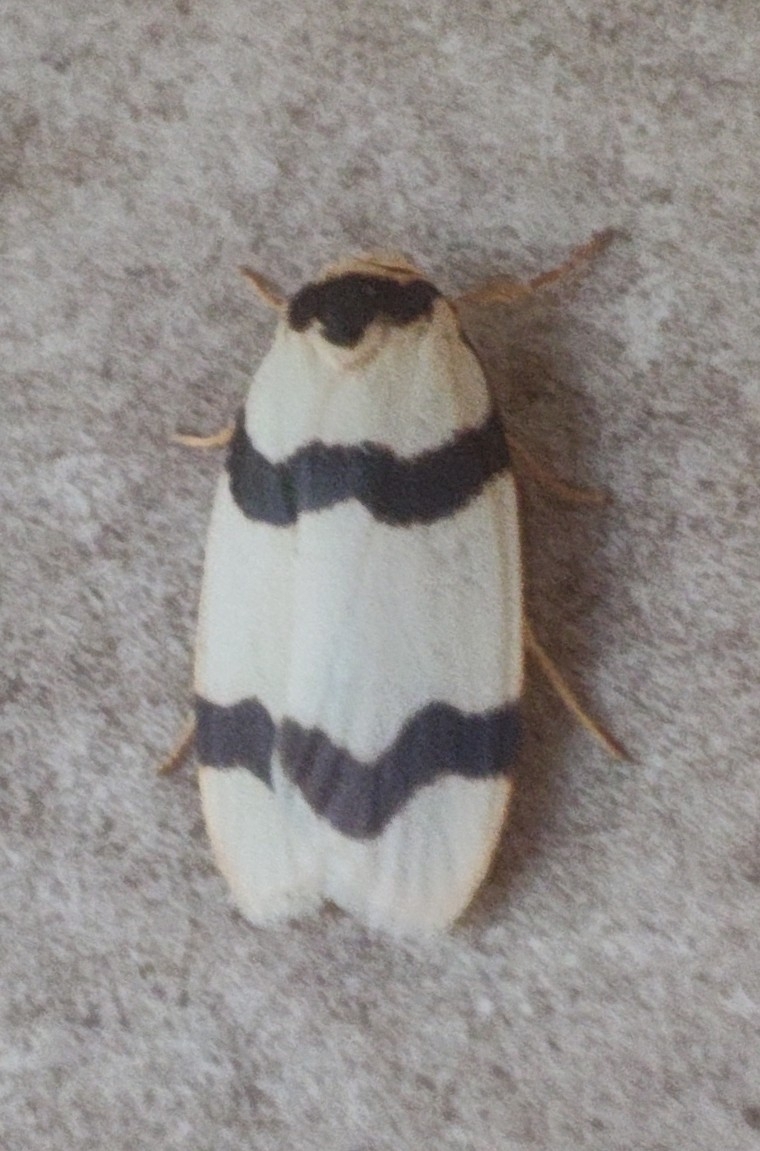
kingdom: Animalia
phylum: Arthropoda
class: Insecta
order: Lepidoptera
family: Erebidae
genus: Padenia
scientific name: Padenia transversa
